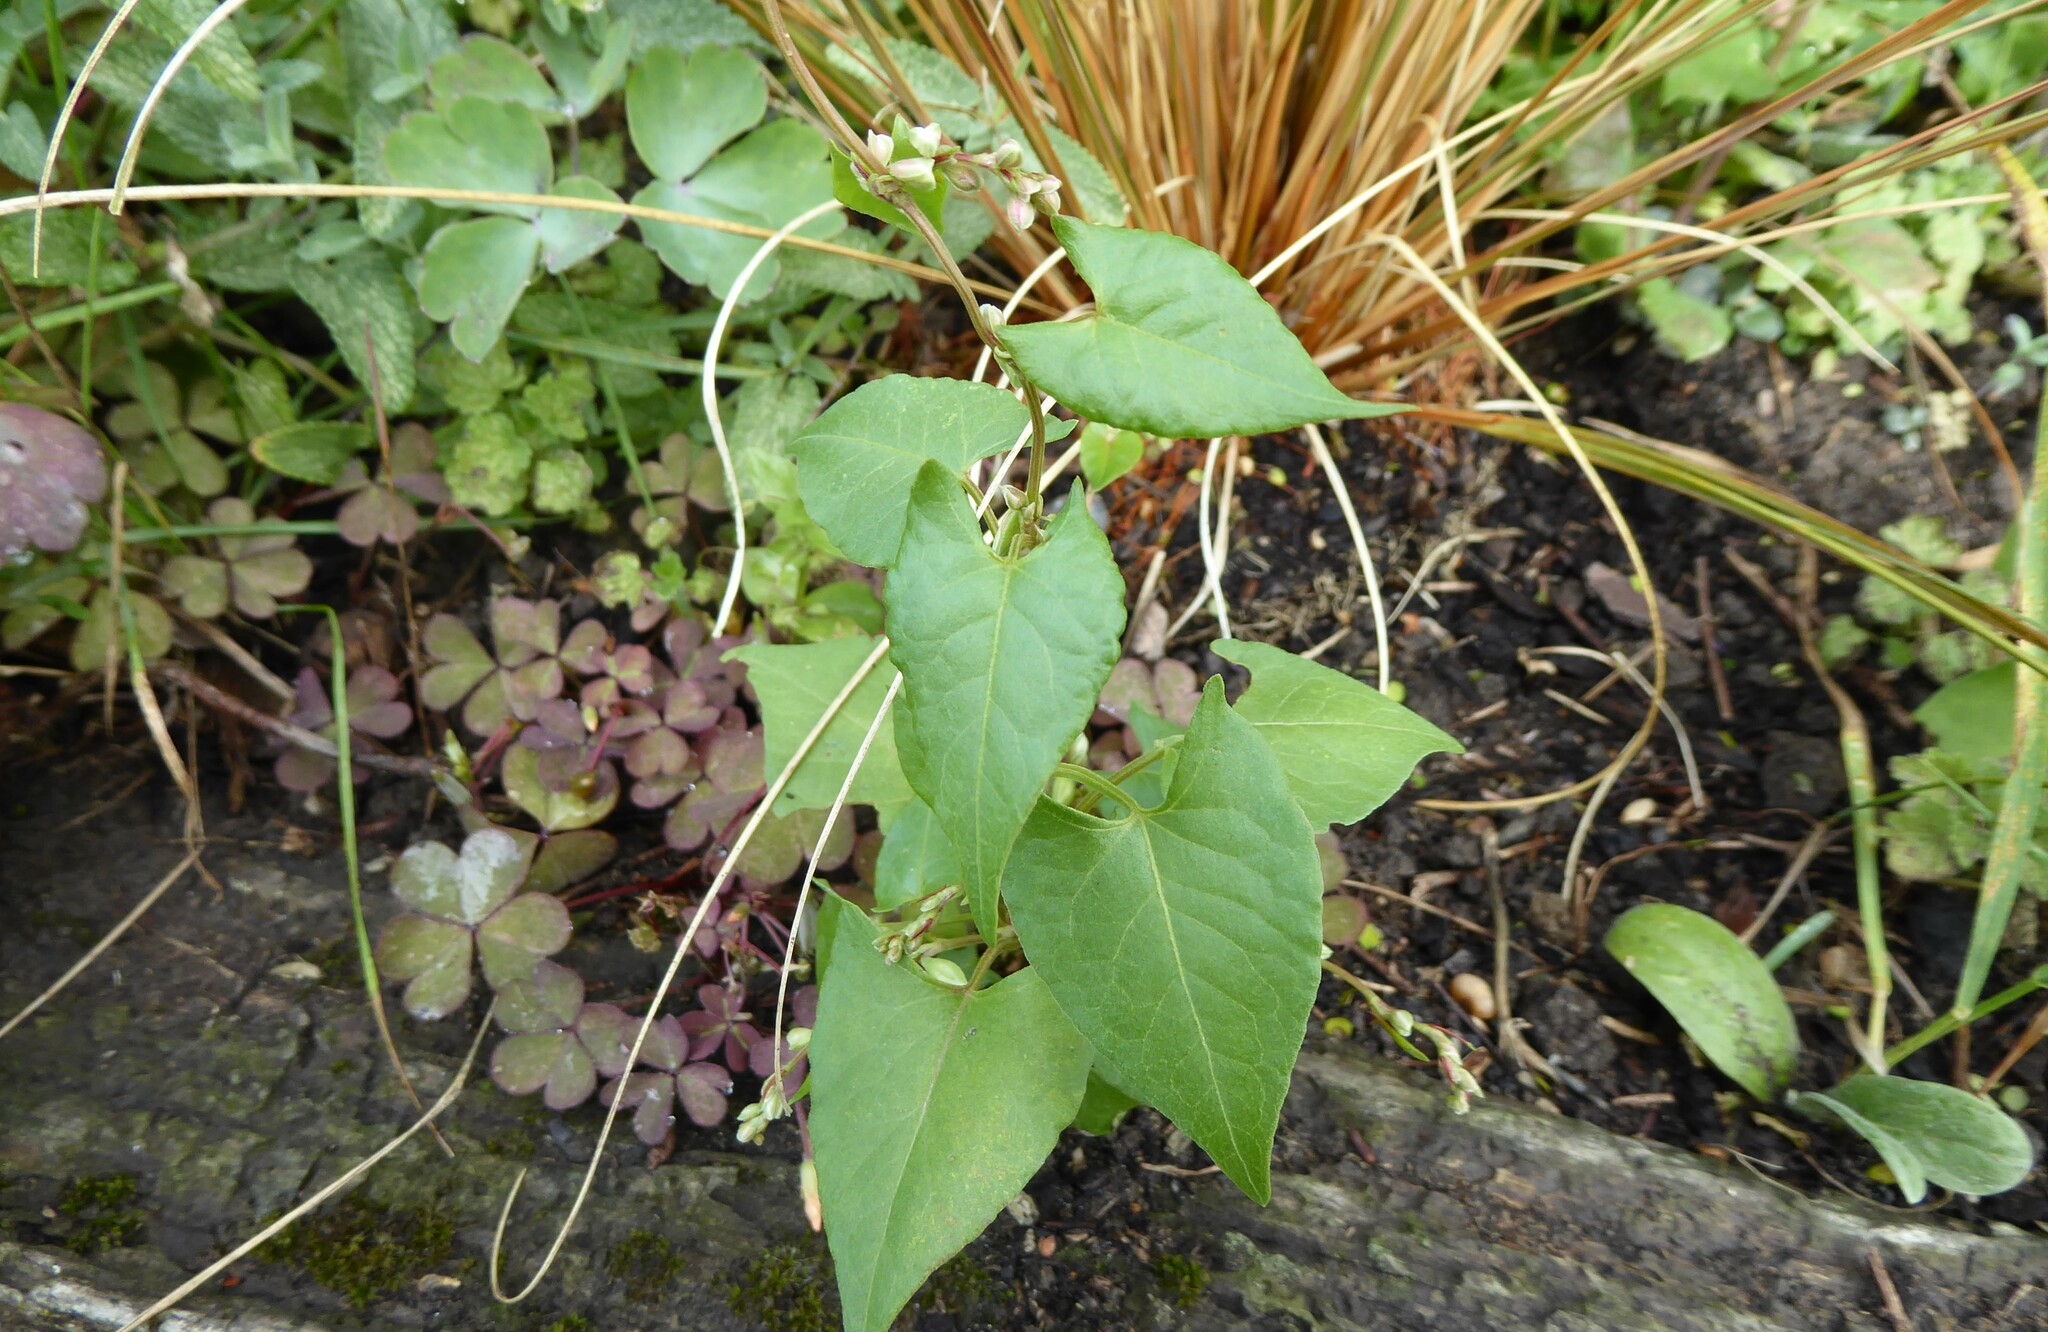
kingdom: Plantae
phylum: Tracheophyta
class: Magnoliopsida
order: Caryophyllales
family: Polygonaceae
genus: Fallopia
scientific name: Fallopia convolvulus
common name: Black bindweed
